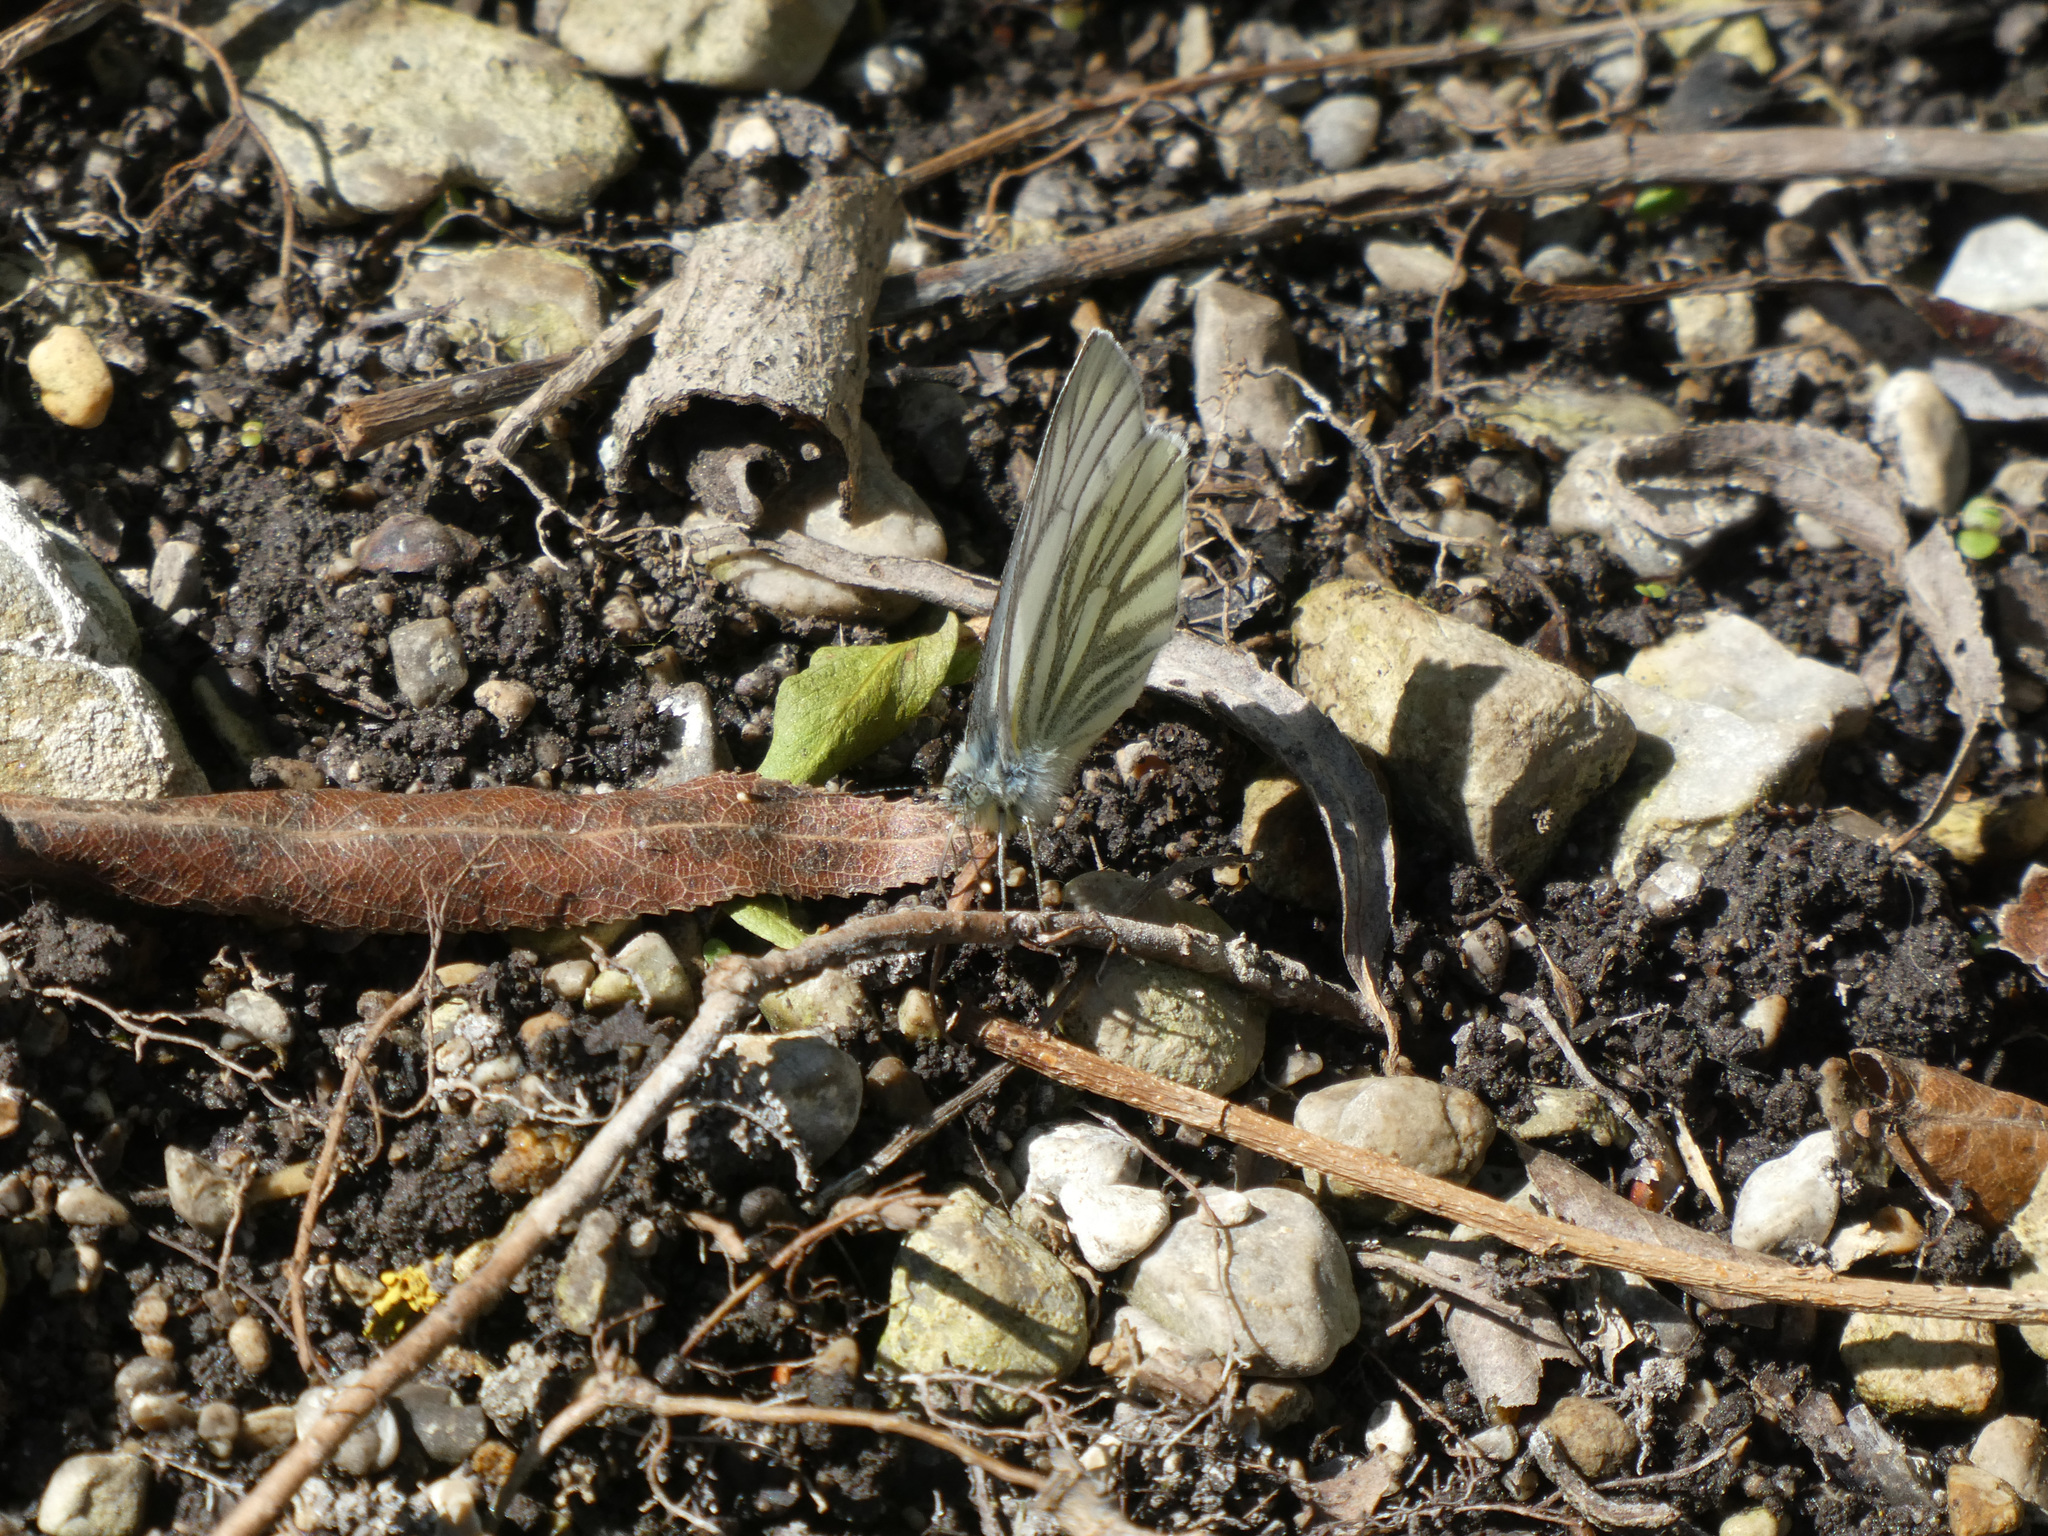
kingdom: Animalia
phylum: Arthropoda
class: Insecta
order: Lepidoptera
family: Pieridae
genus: Pieris
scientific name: Pieris napi
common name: Green-veined white
